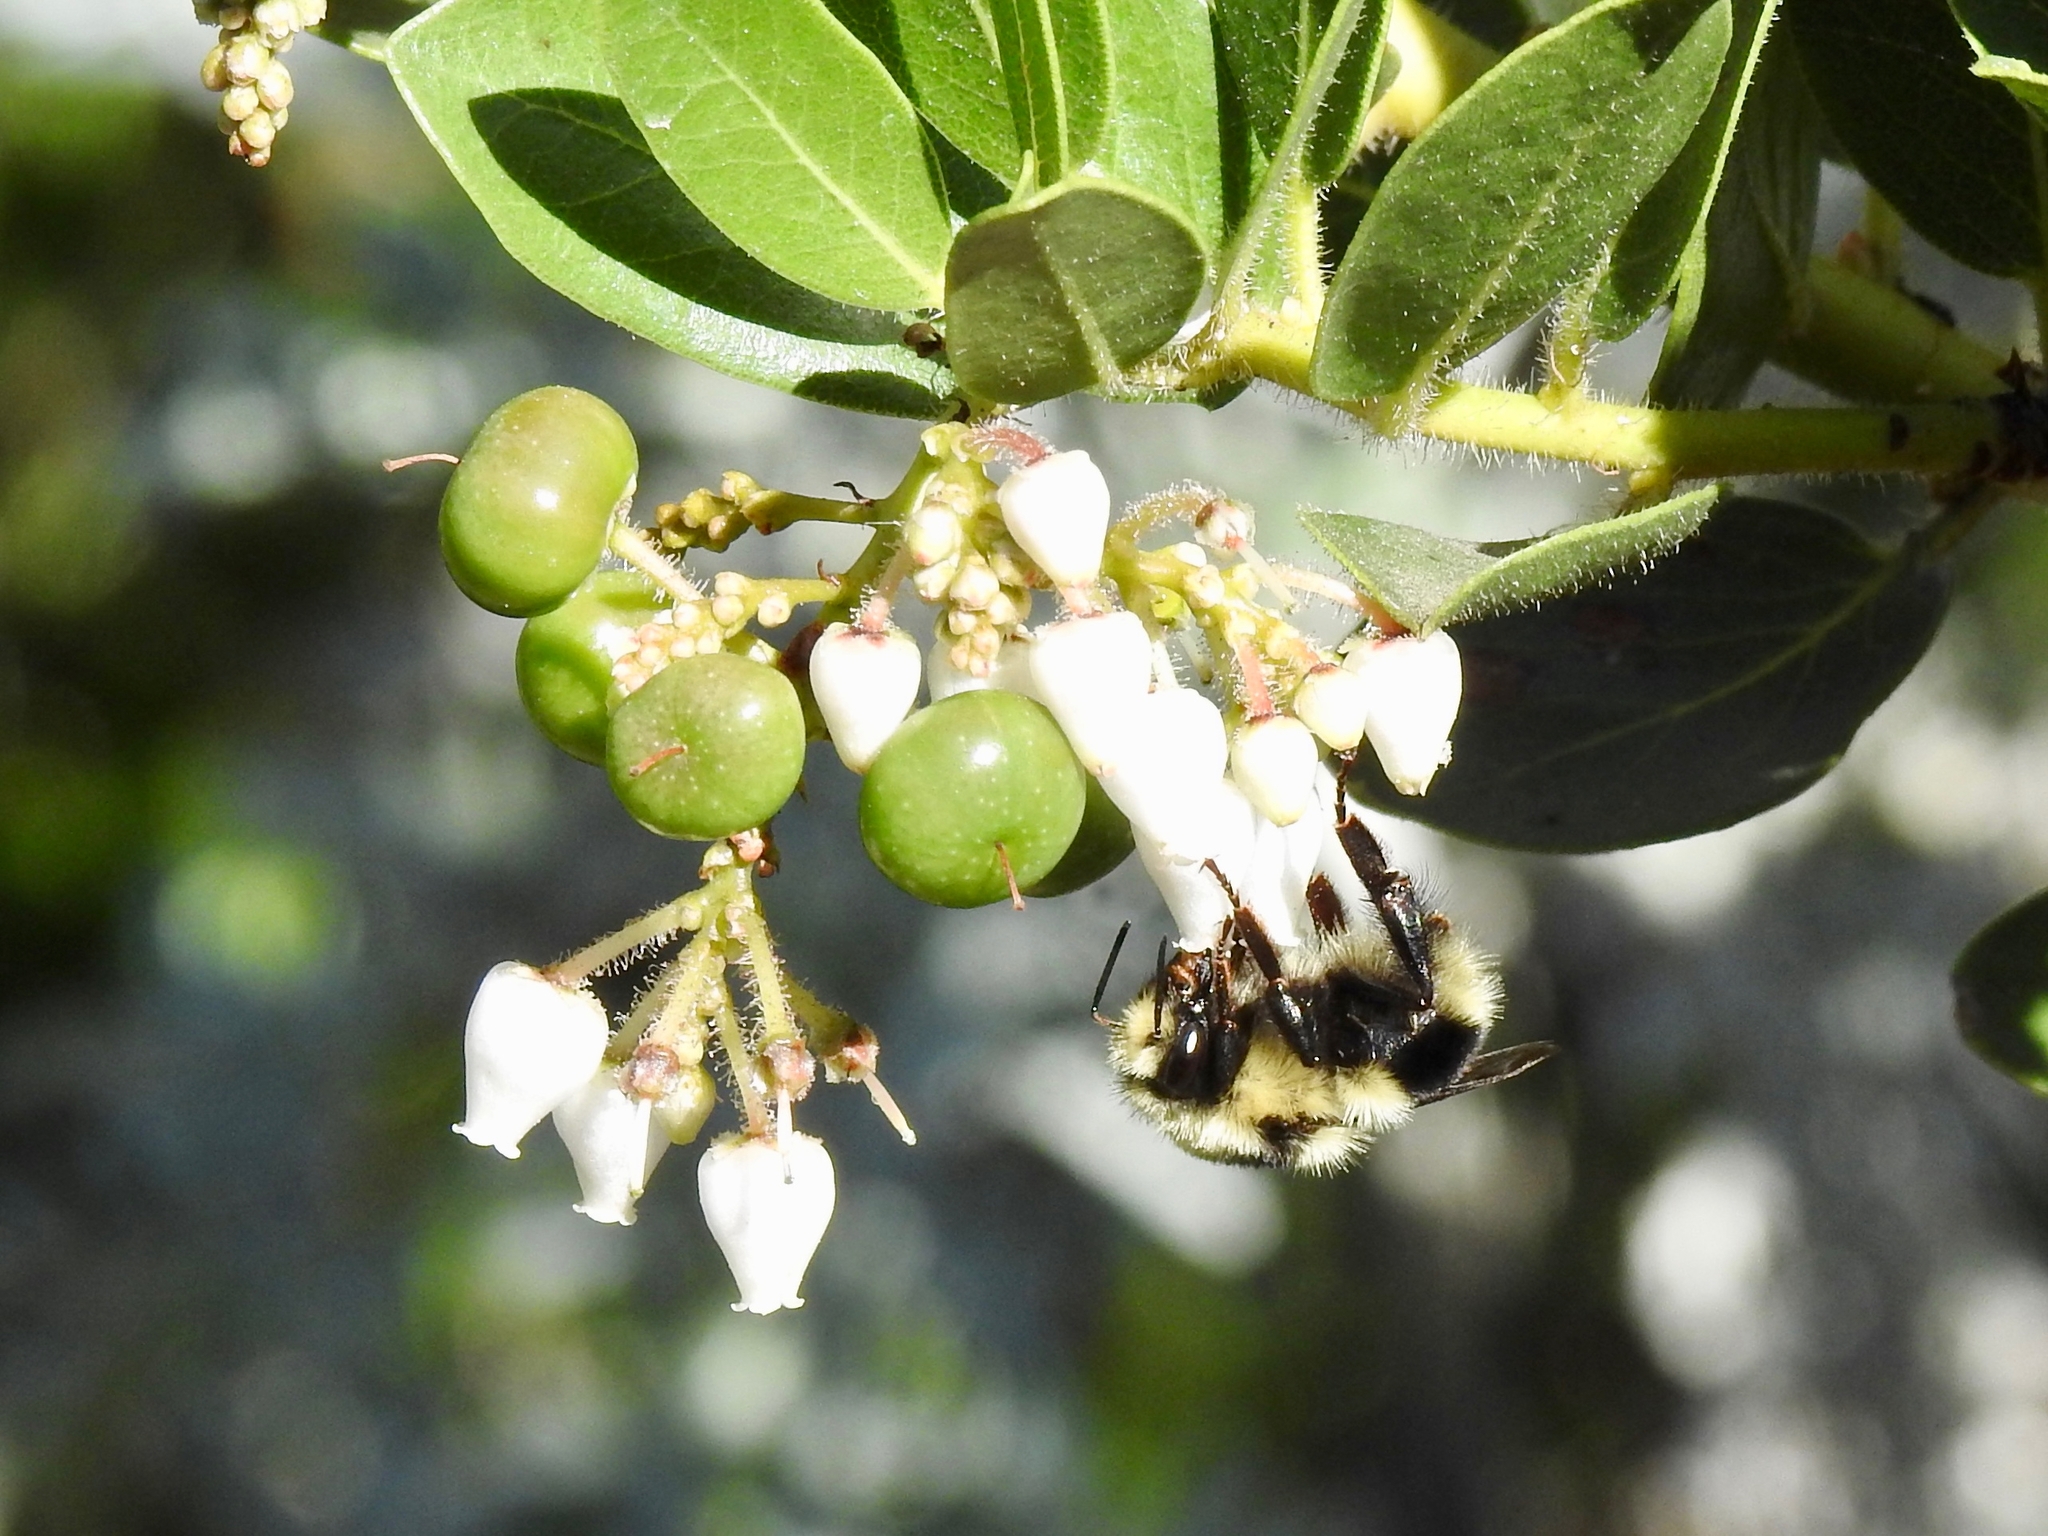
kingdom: Animalia
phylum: Arthropoda
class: Insecta
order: Hymenoptera
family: Apidae
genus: Bombus
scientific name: Bombus melanopygus
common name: Black tail bumble bee
